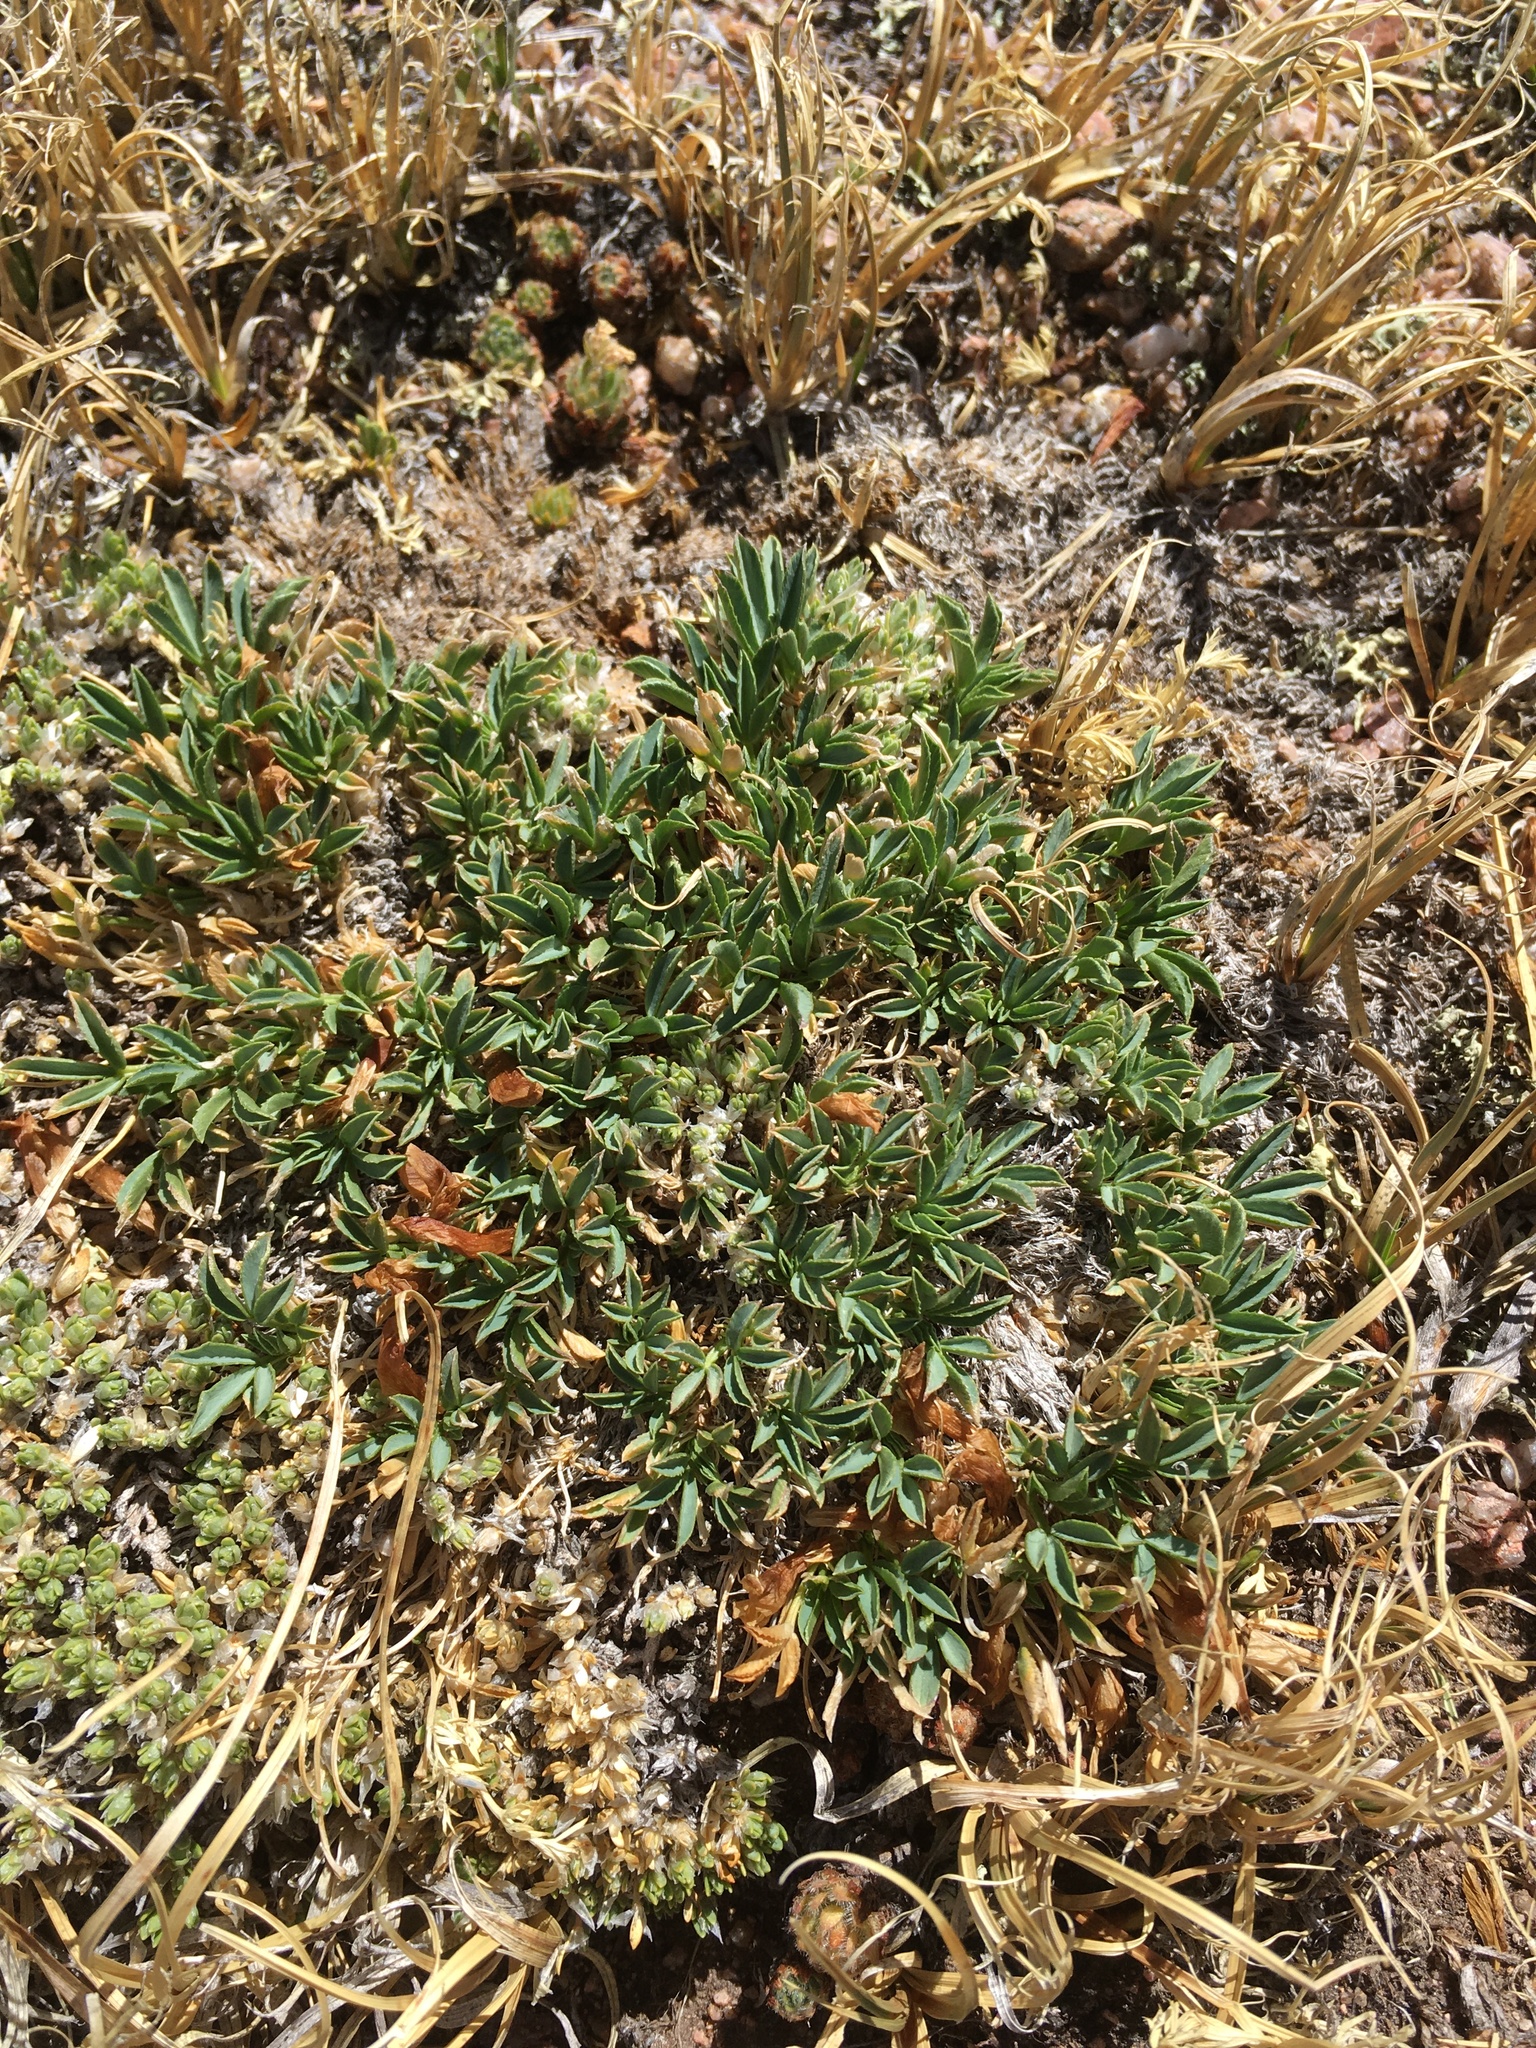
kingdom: Plantae
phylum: Tracheophyta
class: Magnoliopsida
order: Fabales
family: Fabaceae
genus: Trifolium
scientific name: Trifolium nanum
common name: Tundra clover
